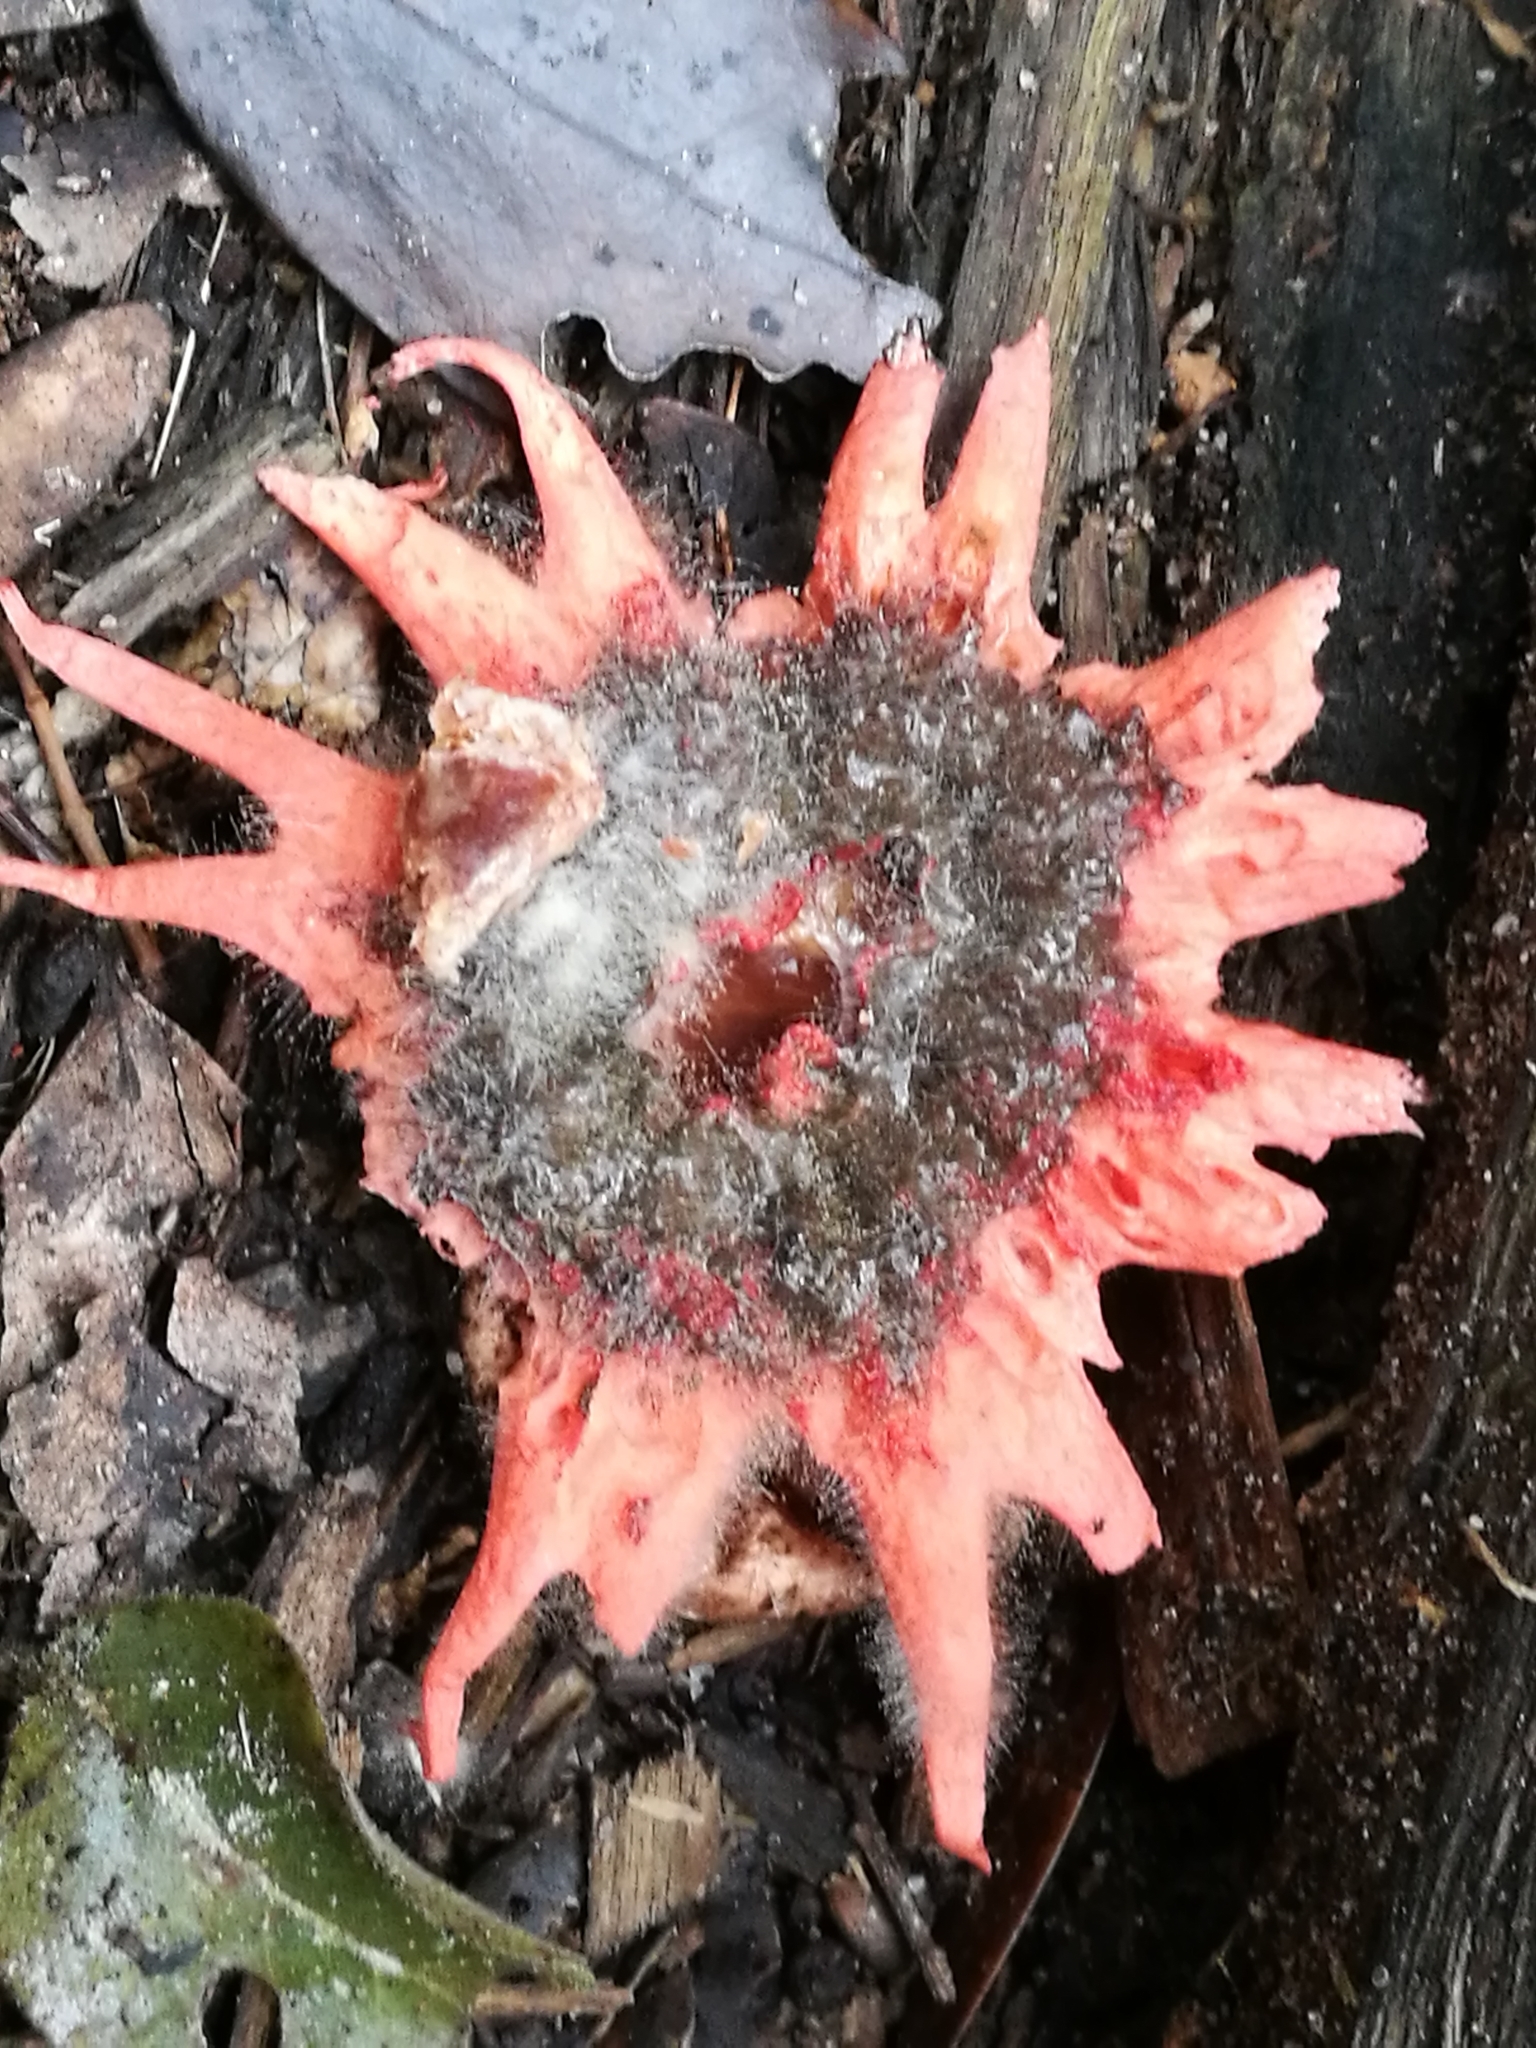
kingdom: Fungi
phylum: Basidiomycota
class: Agaricomycetes
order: Phallales
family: Phallaceae
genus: Aseroe
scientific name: Aseroe rubra
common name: Starfish fungus
